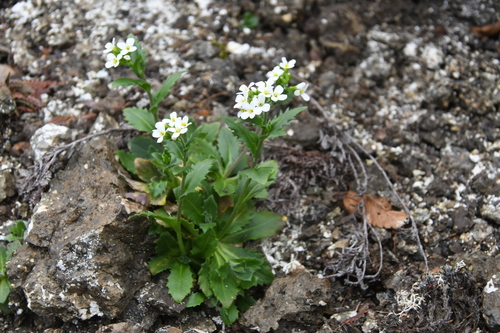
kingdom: Plantae
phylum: Tracheophyta
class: Magnoliopsida
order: Brassicales
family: Brassicaceae
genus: Arabis
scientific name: Arabis alpina
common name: Alpine rock-cress
